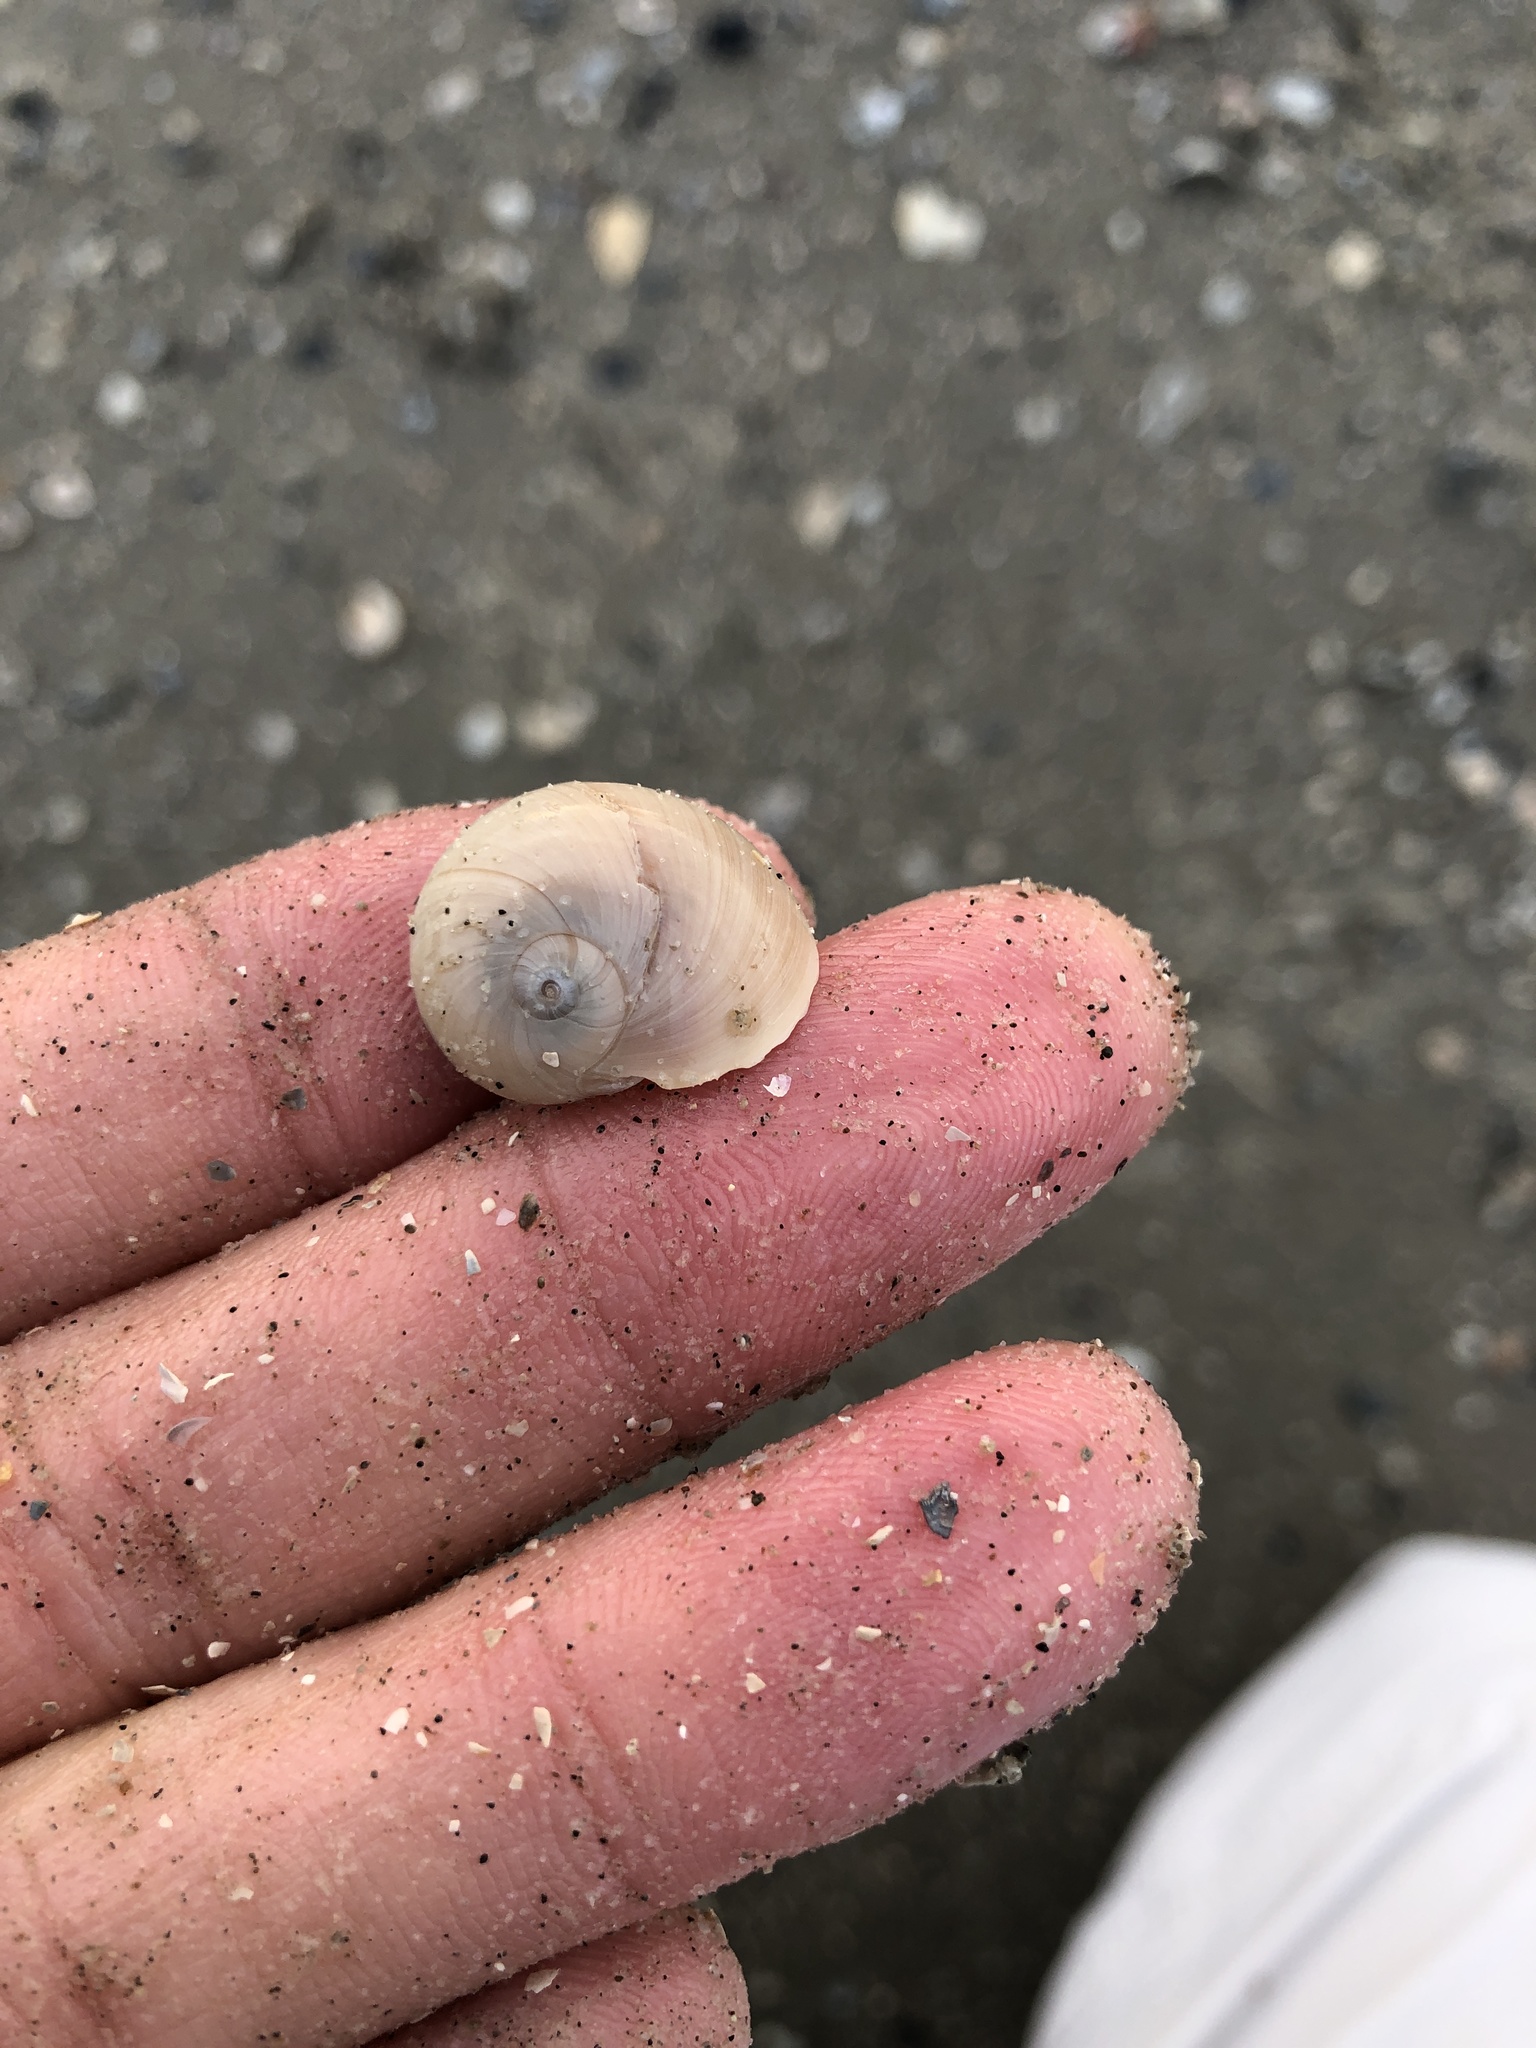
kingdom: Animalia
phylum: Mollusca
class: Gastropoda
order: Littorinimorpha
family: Naticidae
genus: Neverita
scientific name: Neverita duplicata
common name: Lobed moonsnail
